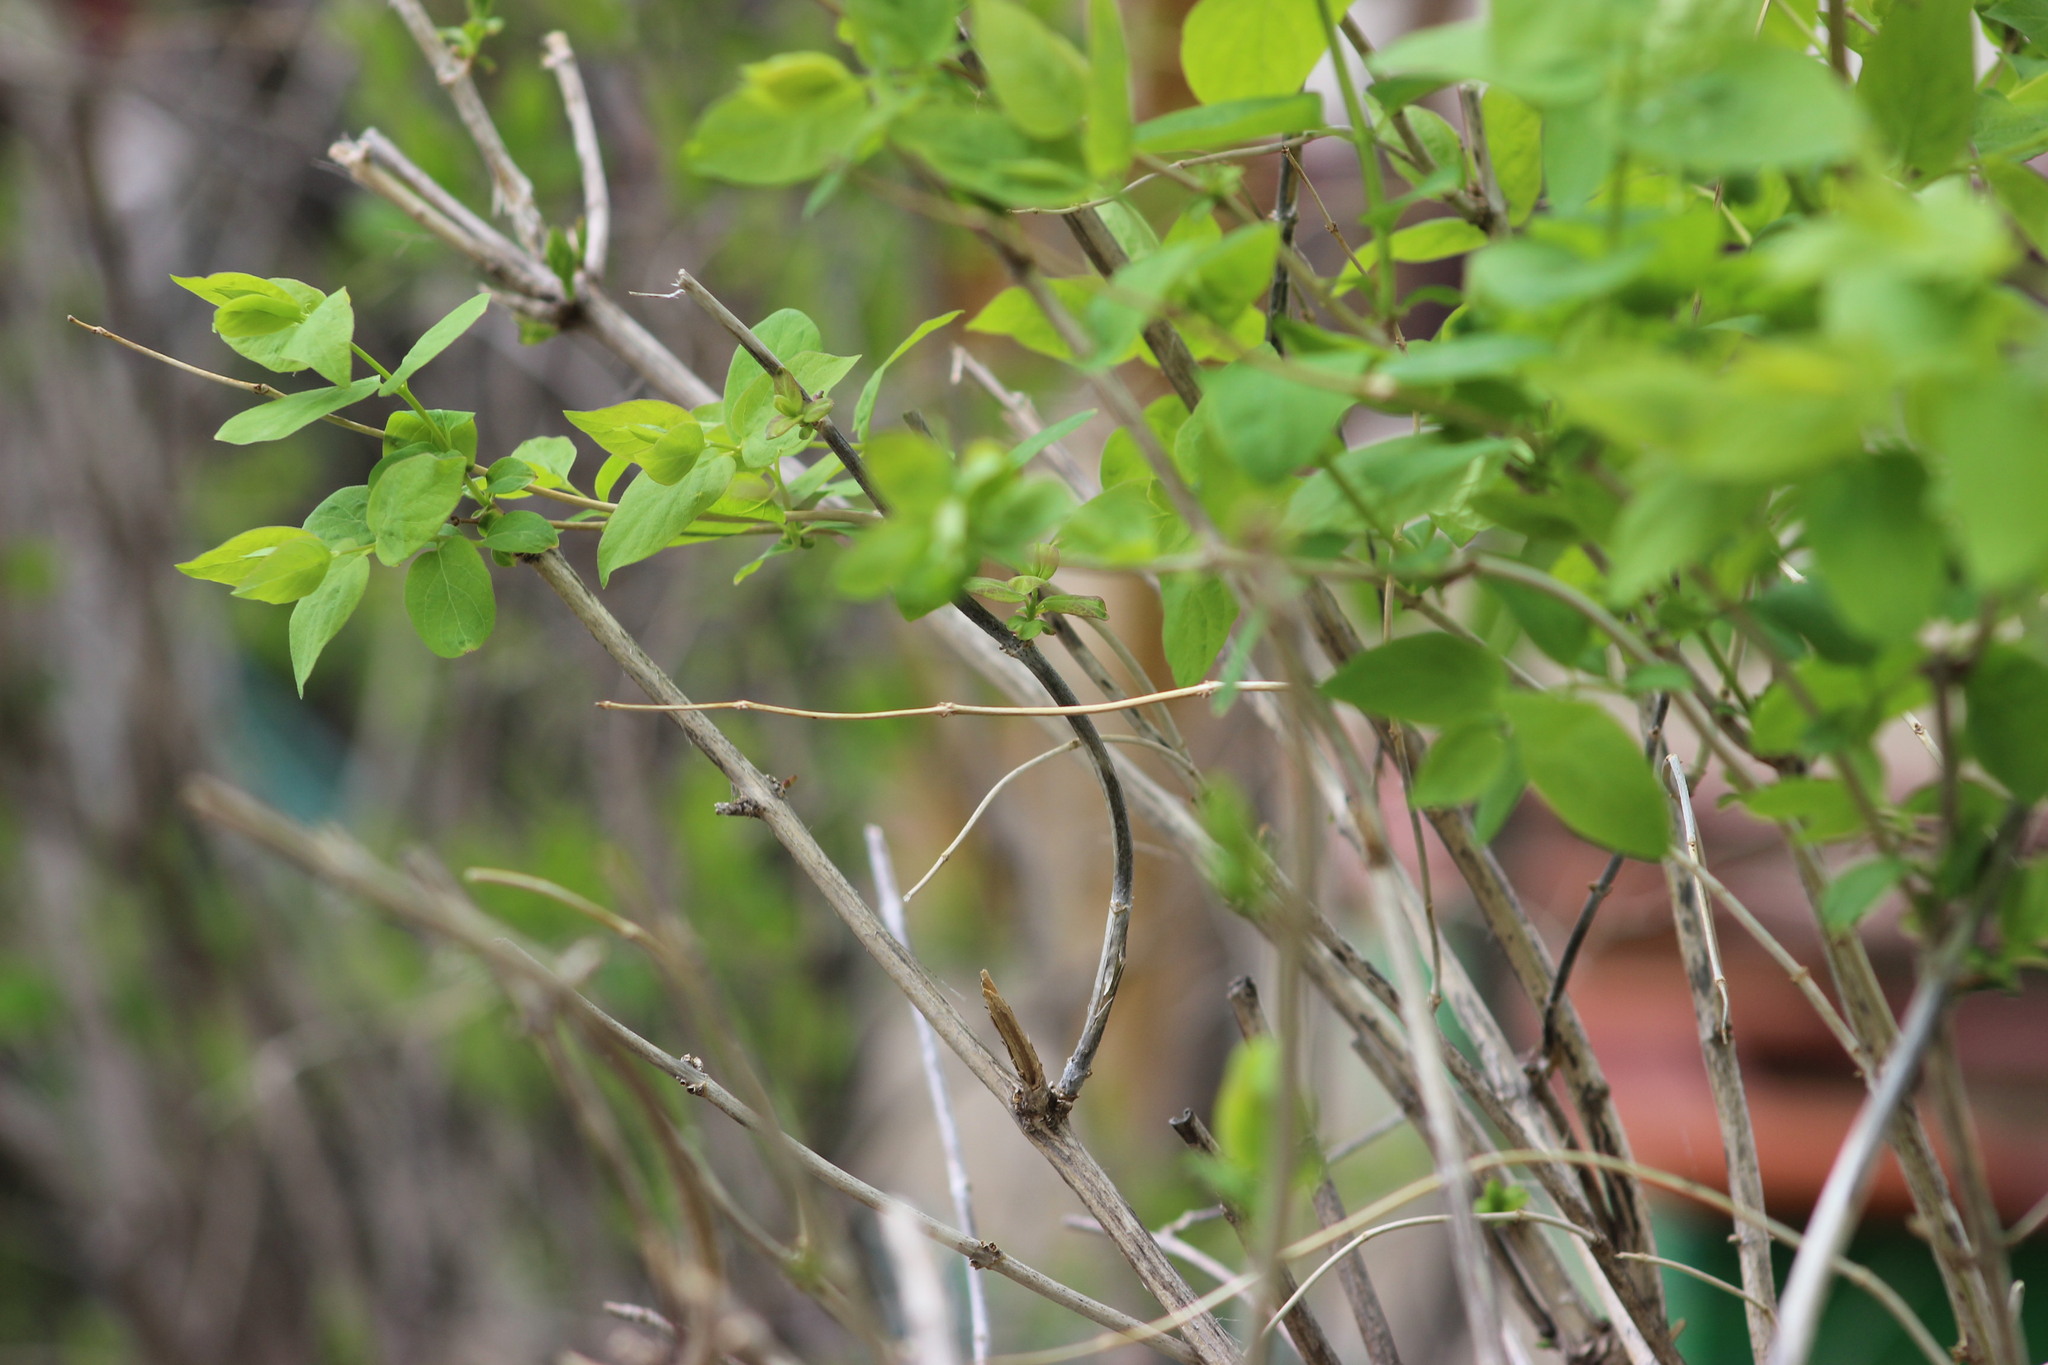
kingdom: Plantae
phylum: Tracheophyta
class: Magnoliopsida
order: Dipsacales
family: Caprifoliaceae
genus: Lonicera
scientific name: Lonicera tatarica
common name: Tatarian honeysuckle
